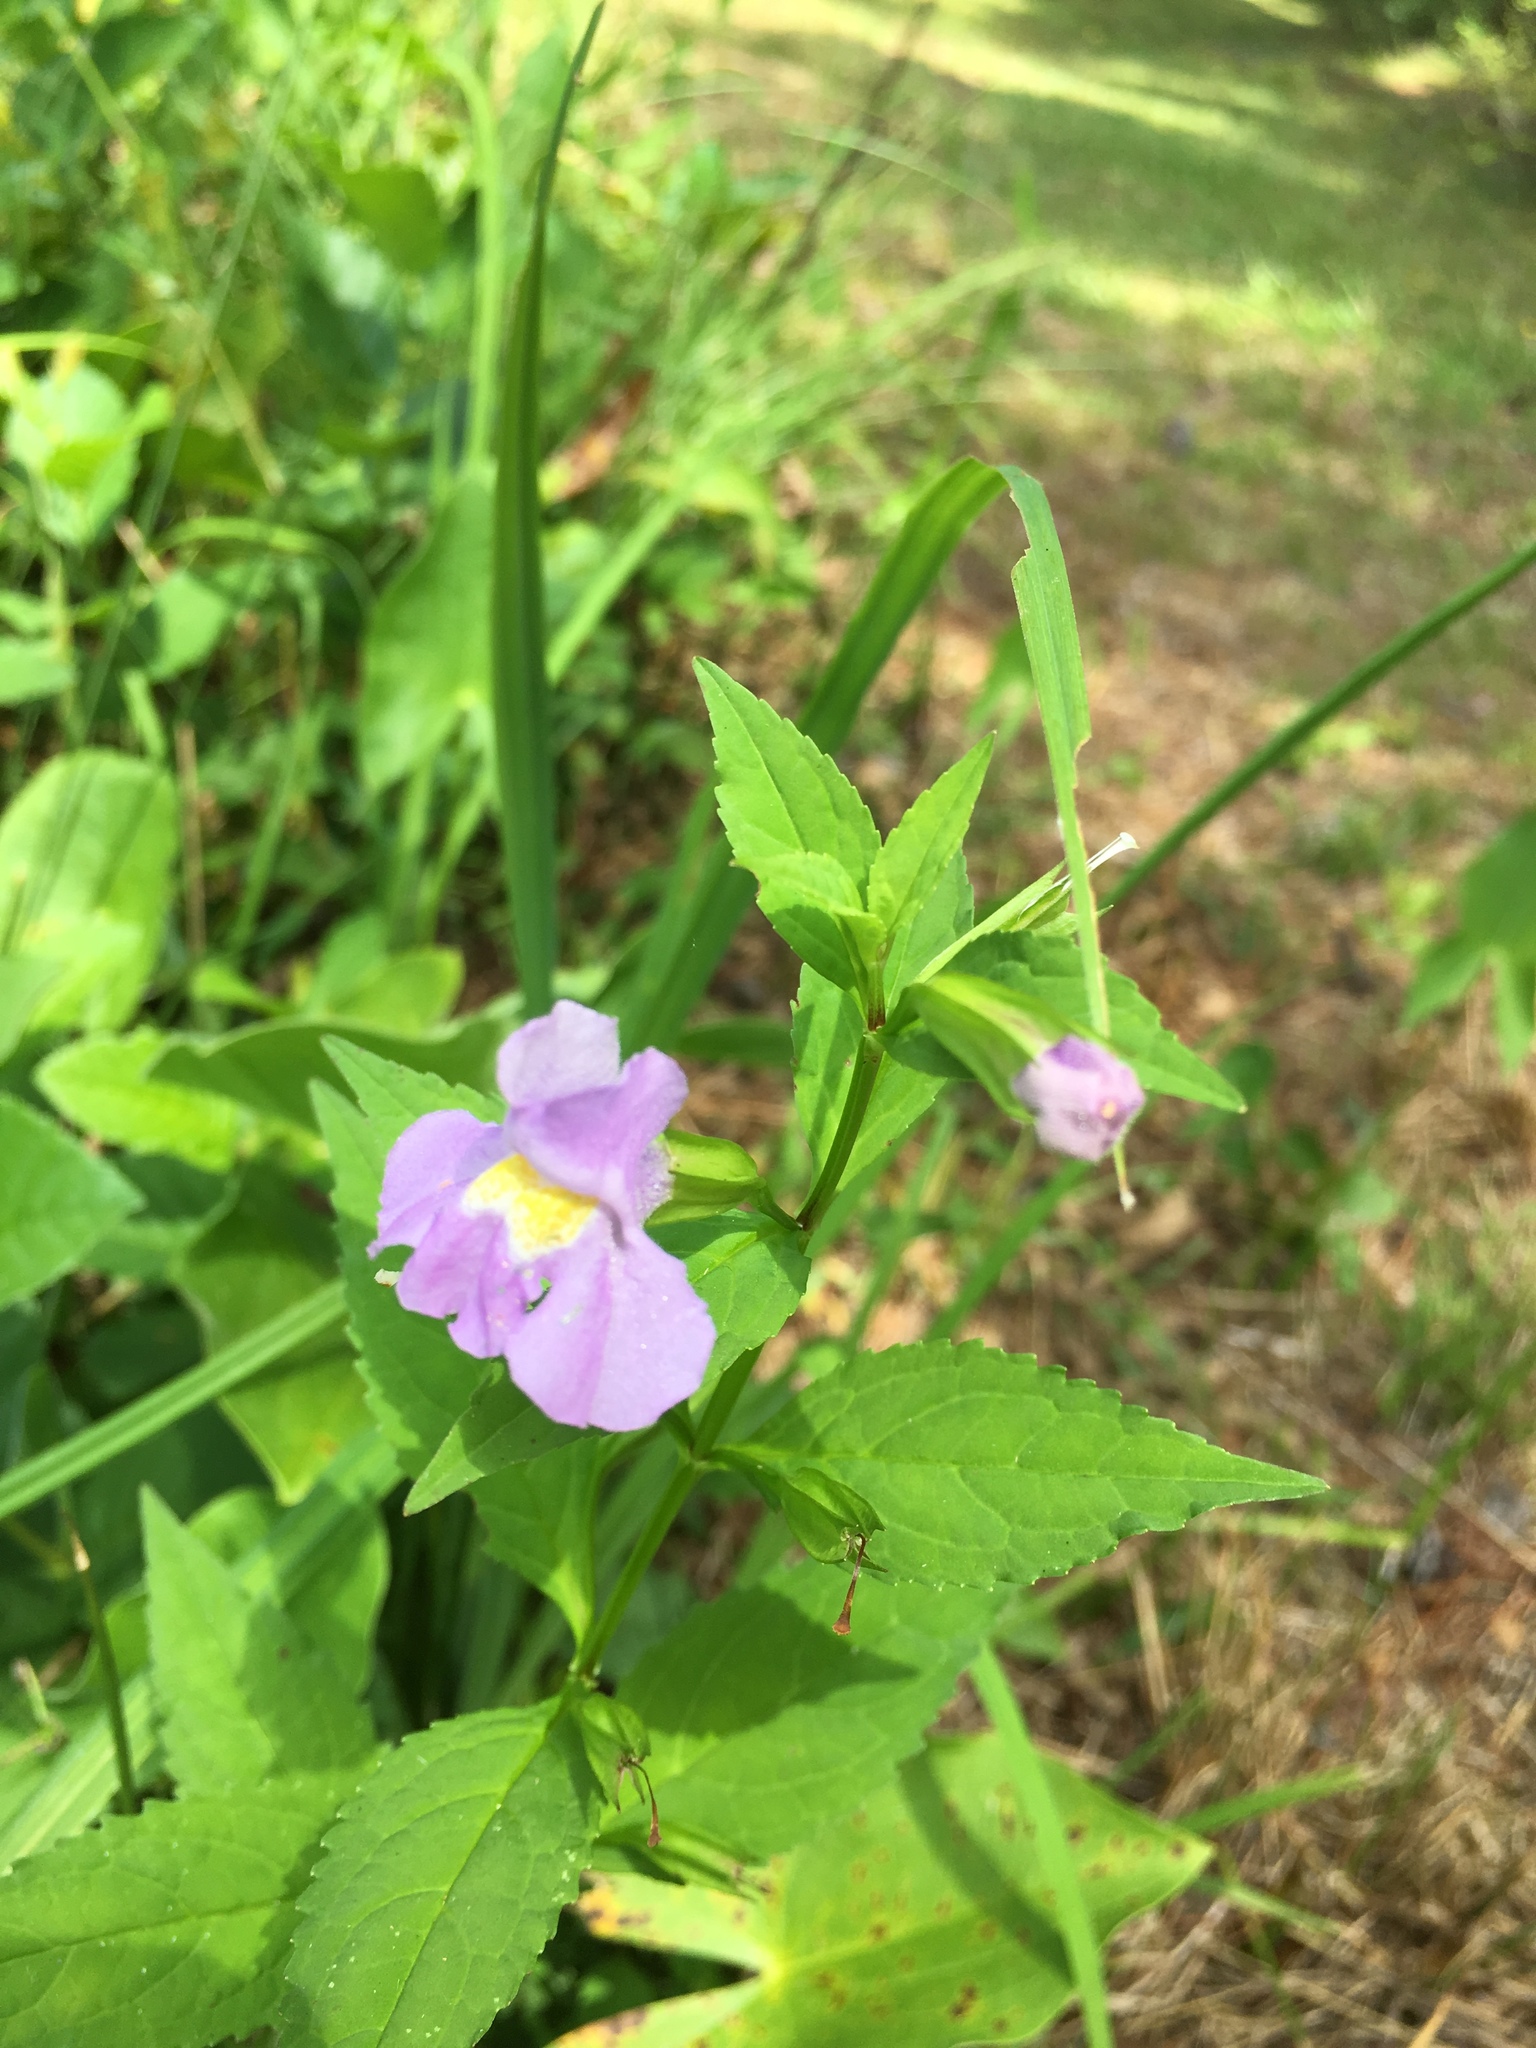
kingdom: Plantae
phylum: Tracheophyta
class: Magnoliopsida
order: Lamiales
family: Phrymaceae
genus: Mimulus
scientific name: Mimulus ringens
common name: Allegheny monkeyflower
